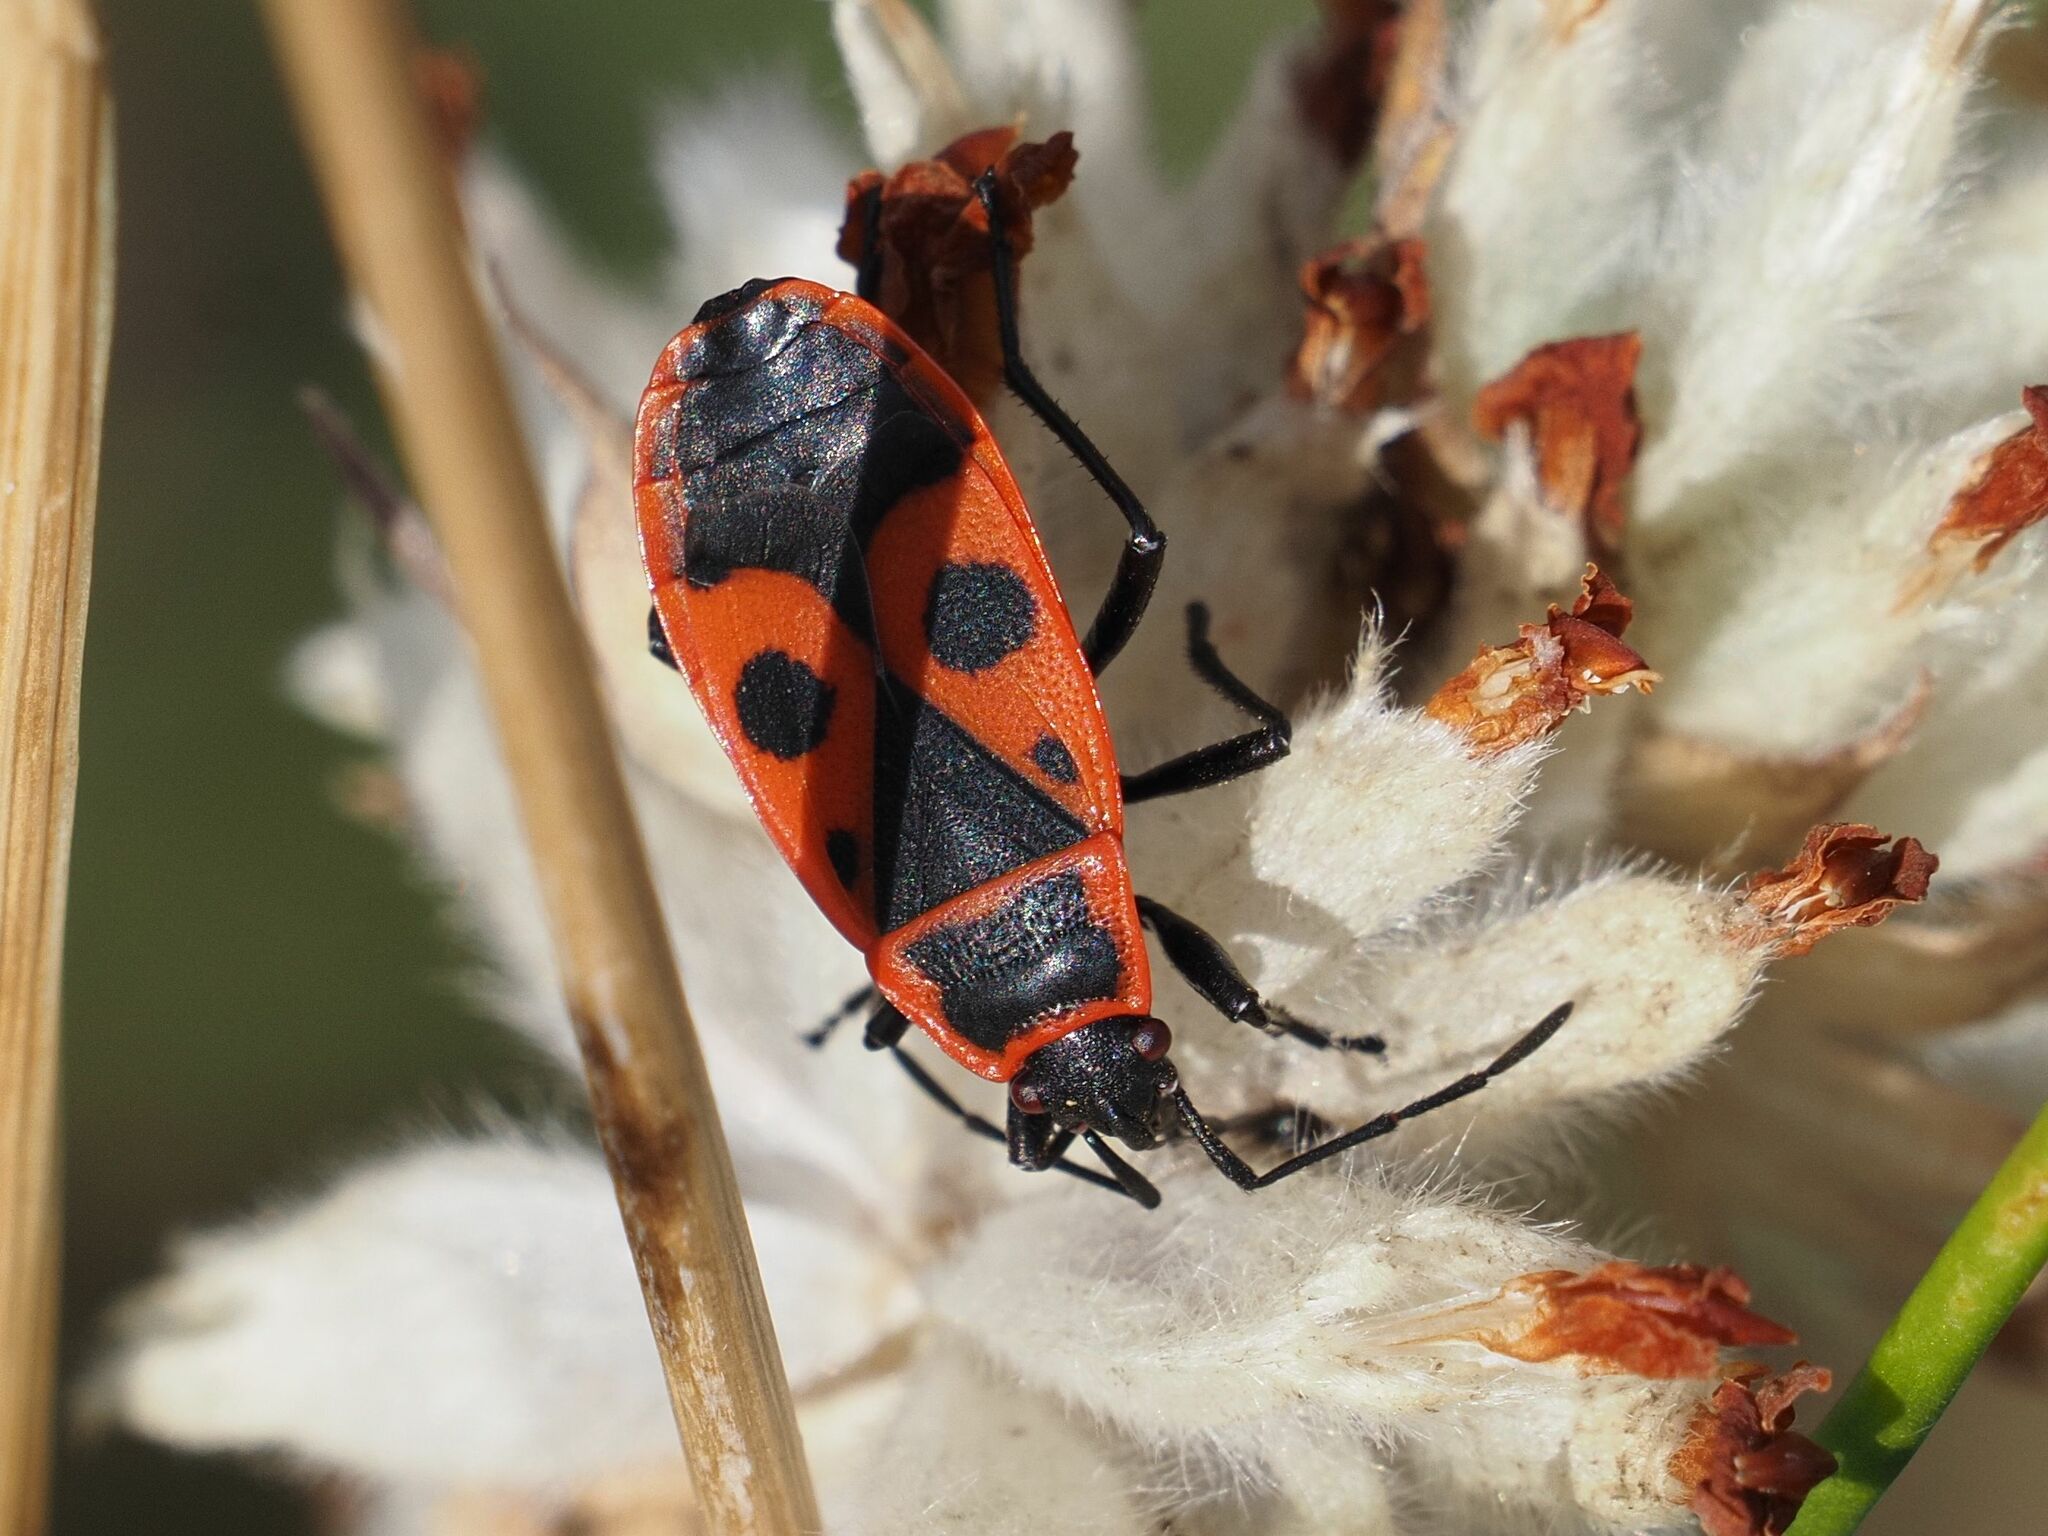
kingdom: Animalia
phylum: Arthropoda
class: Insecta
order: Hemiptera
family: Pyrrhocoridae
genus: Pyrrhocoris
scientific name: Pyrrhocoris apterus
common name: Firebug
